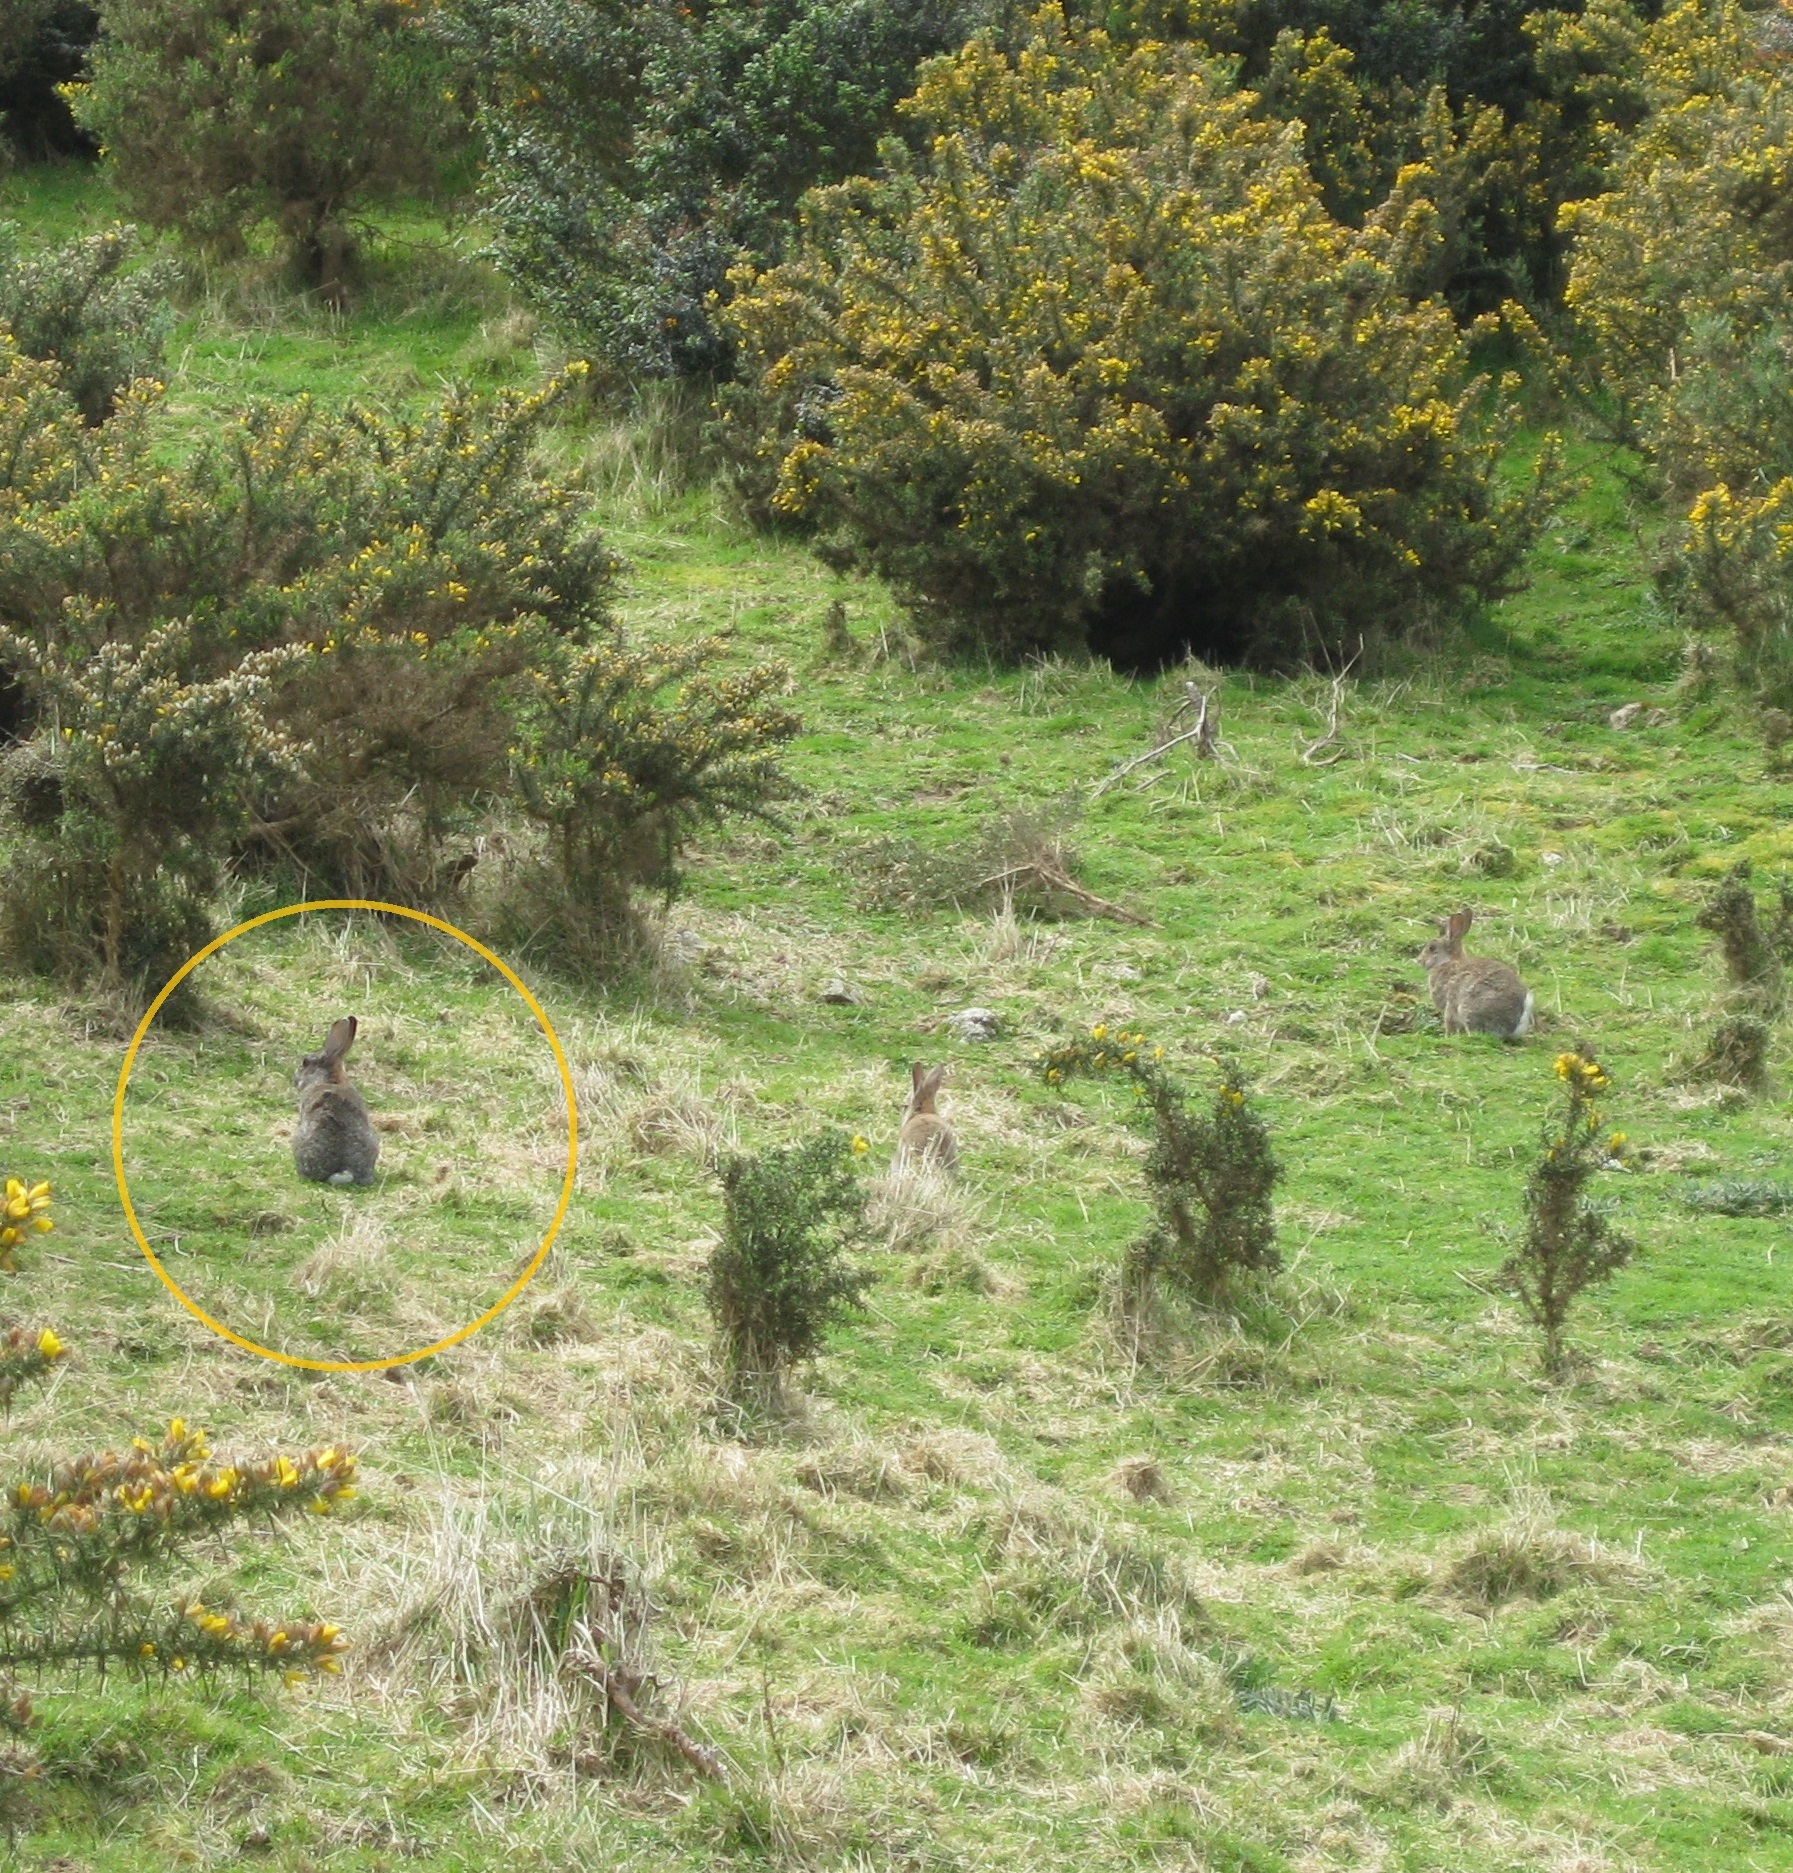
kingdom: Animalia
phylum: Chordata
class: Mammalia
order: Lagomorpha
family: Leporidae
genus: Oryctolagus
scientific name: Oryctolagus cuniculus
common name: European rabbit
